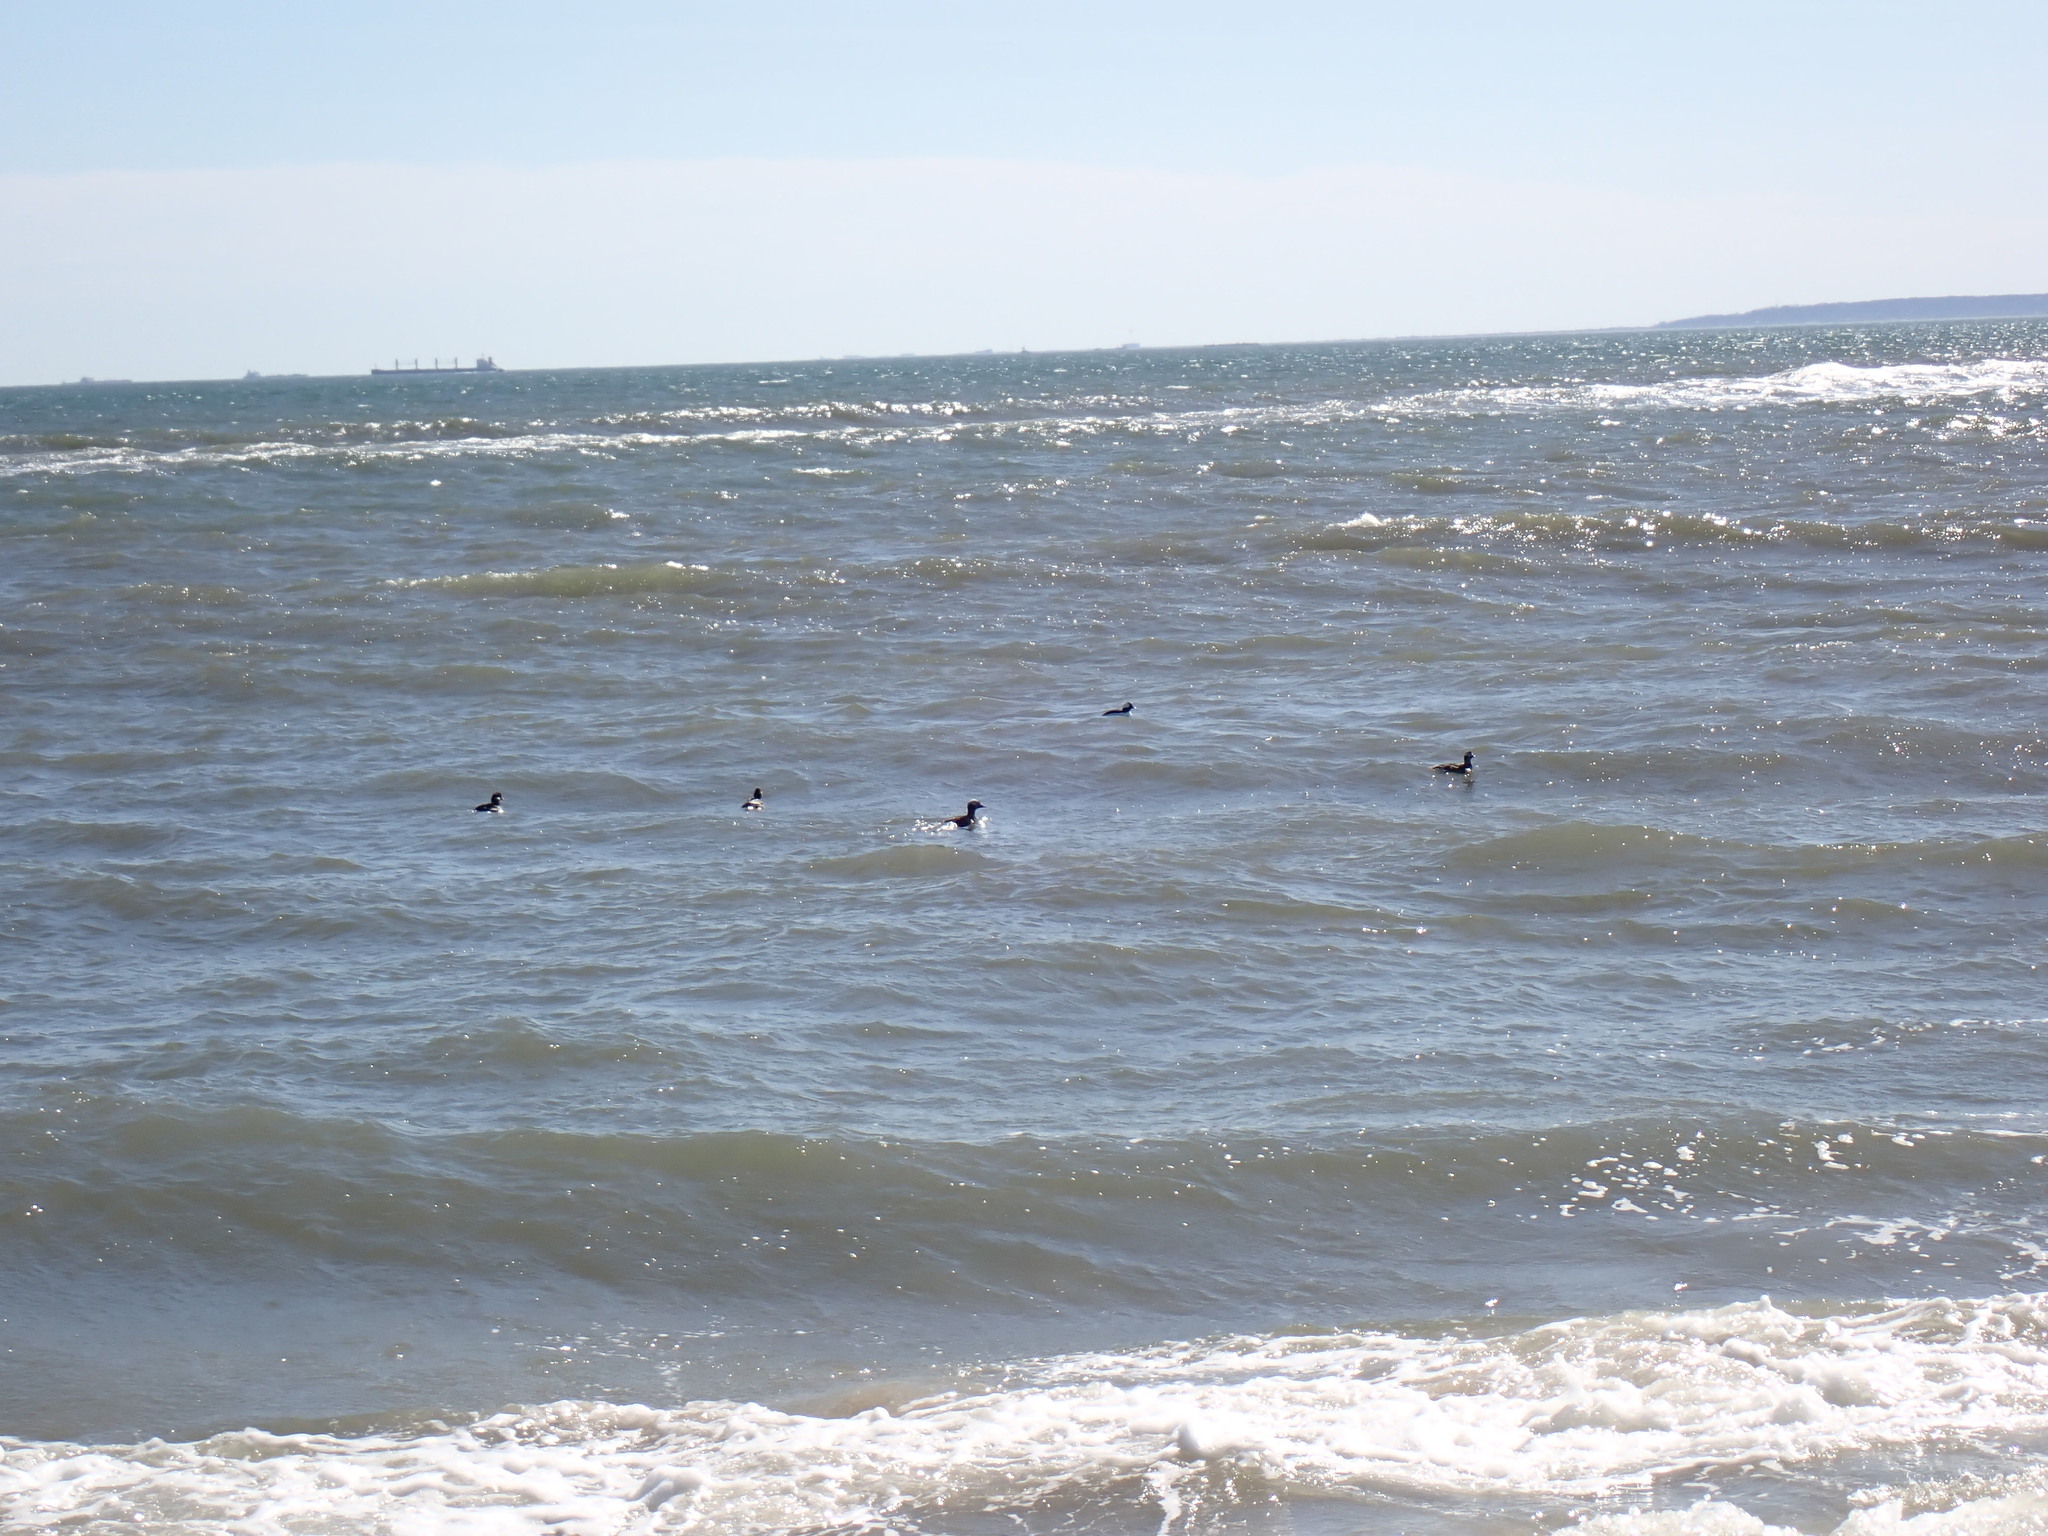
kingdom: Animalia
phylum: Chordata
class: Aves
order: Anseriformes
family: Anatidae
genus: Clangula
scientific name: Clangula hyemalis
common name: Long-tailed duck
